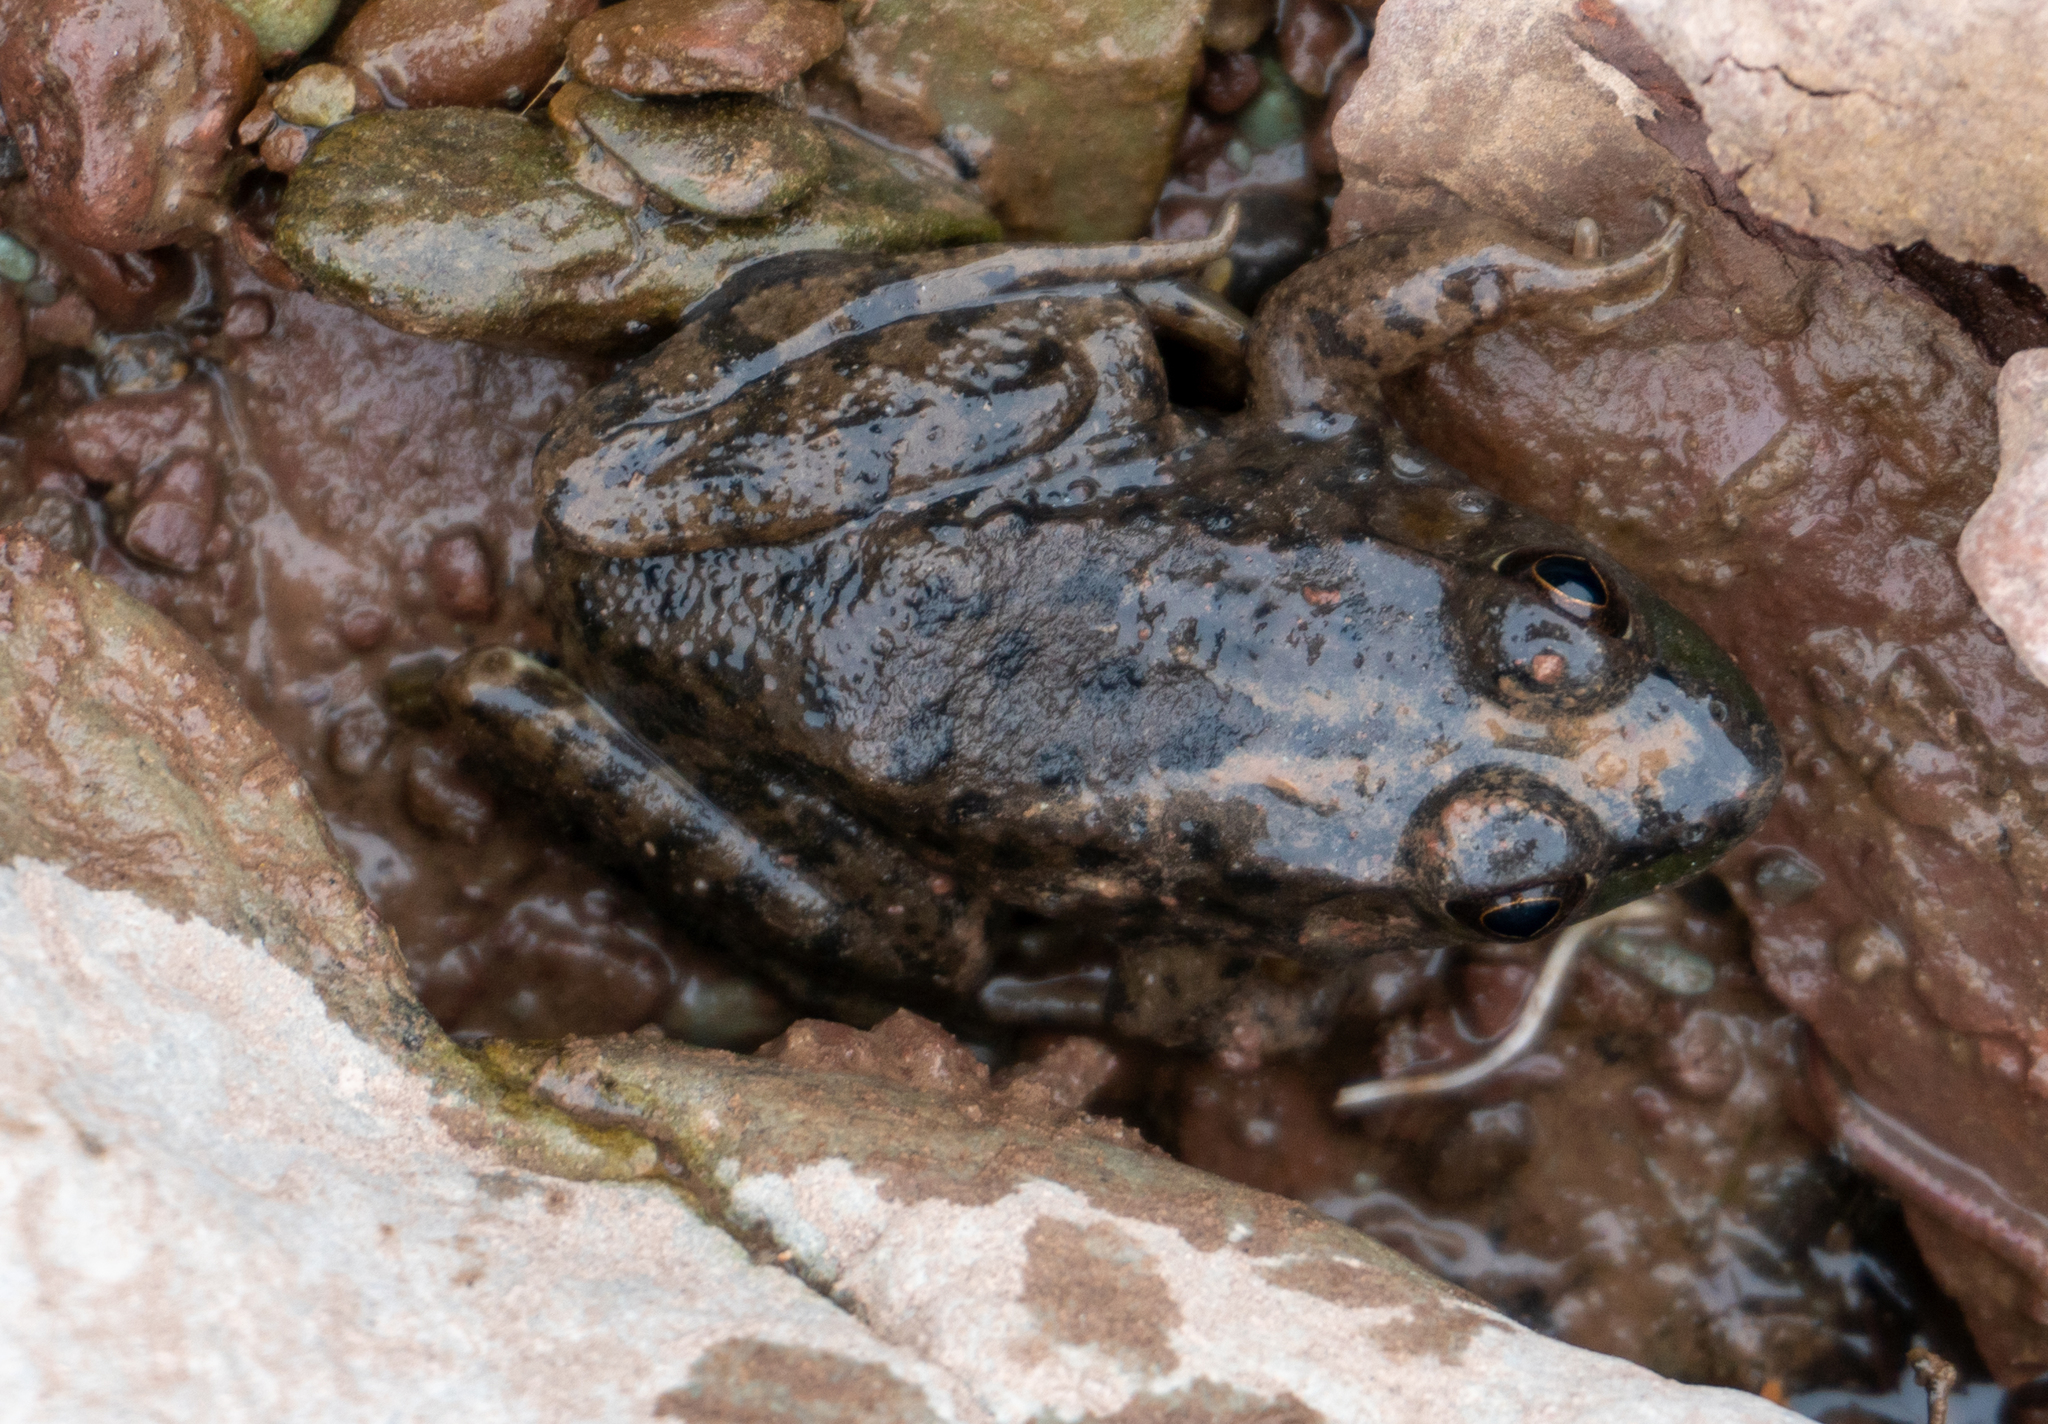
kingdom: Animalia
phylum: Chordata
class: Amphibia
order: Anura
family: Ranidae
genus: Lithobates
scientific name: Lithobates catesbeianus
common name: American bullfrog
